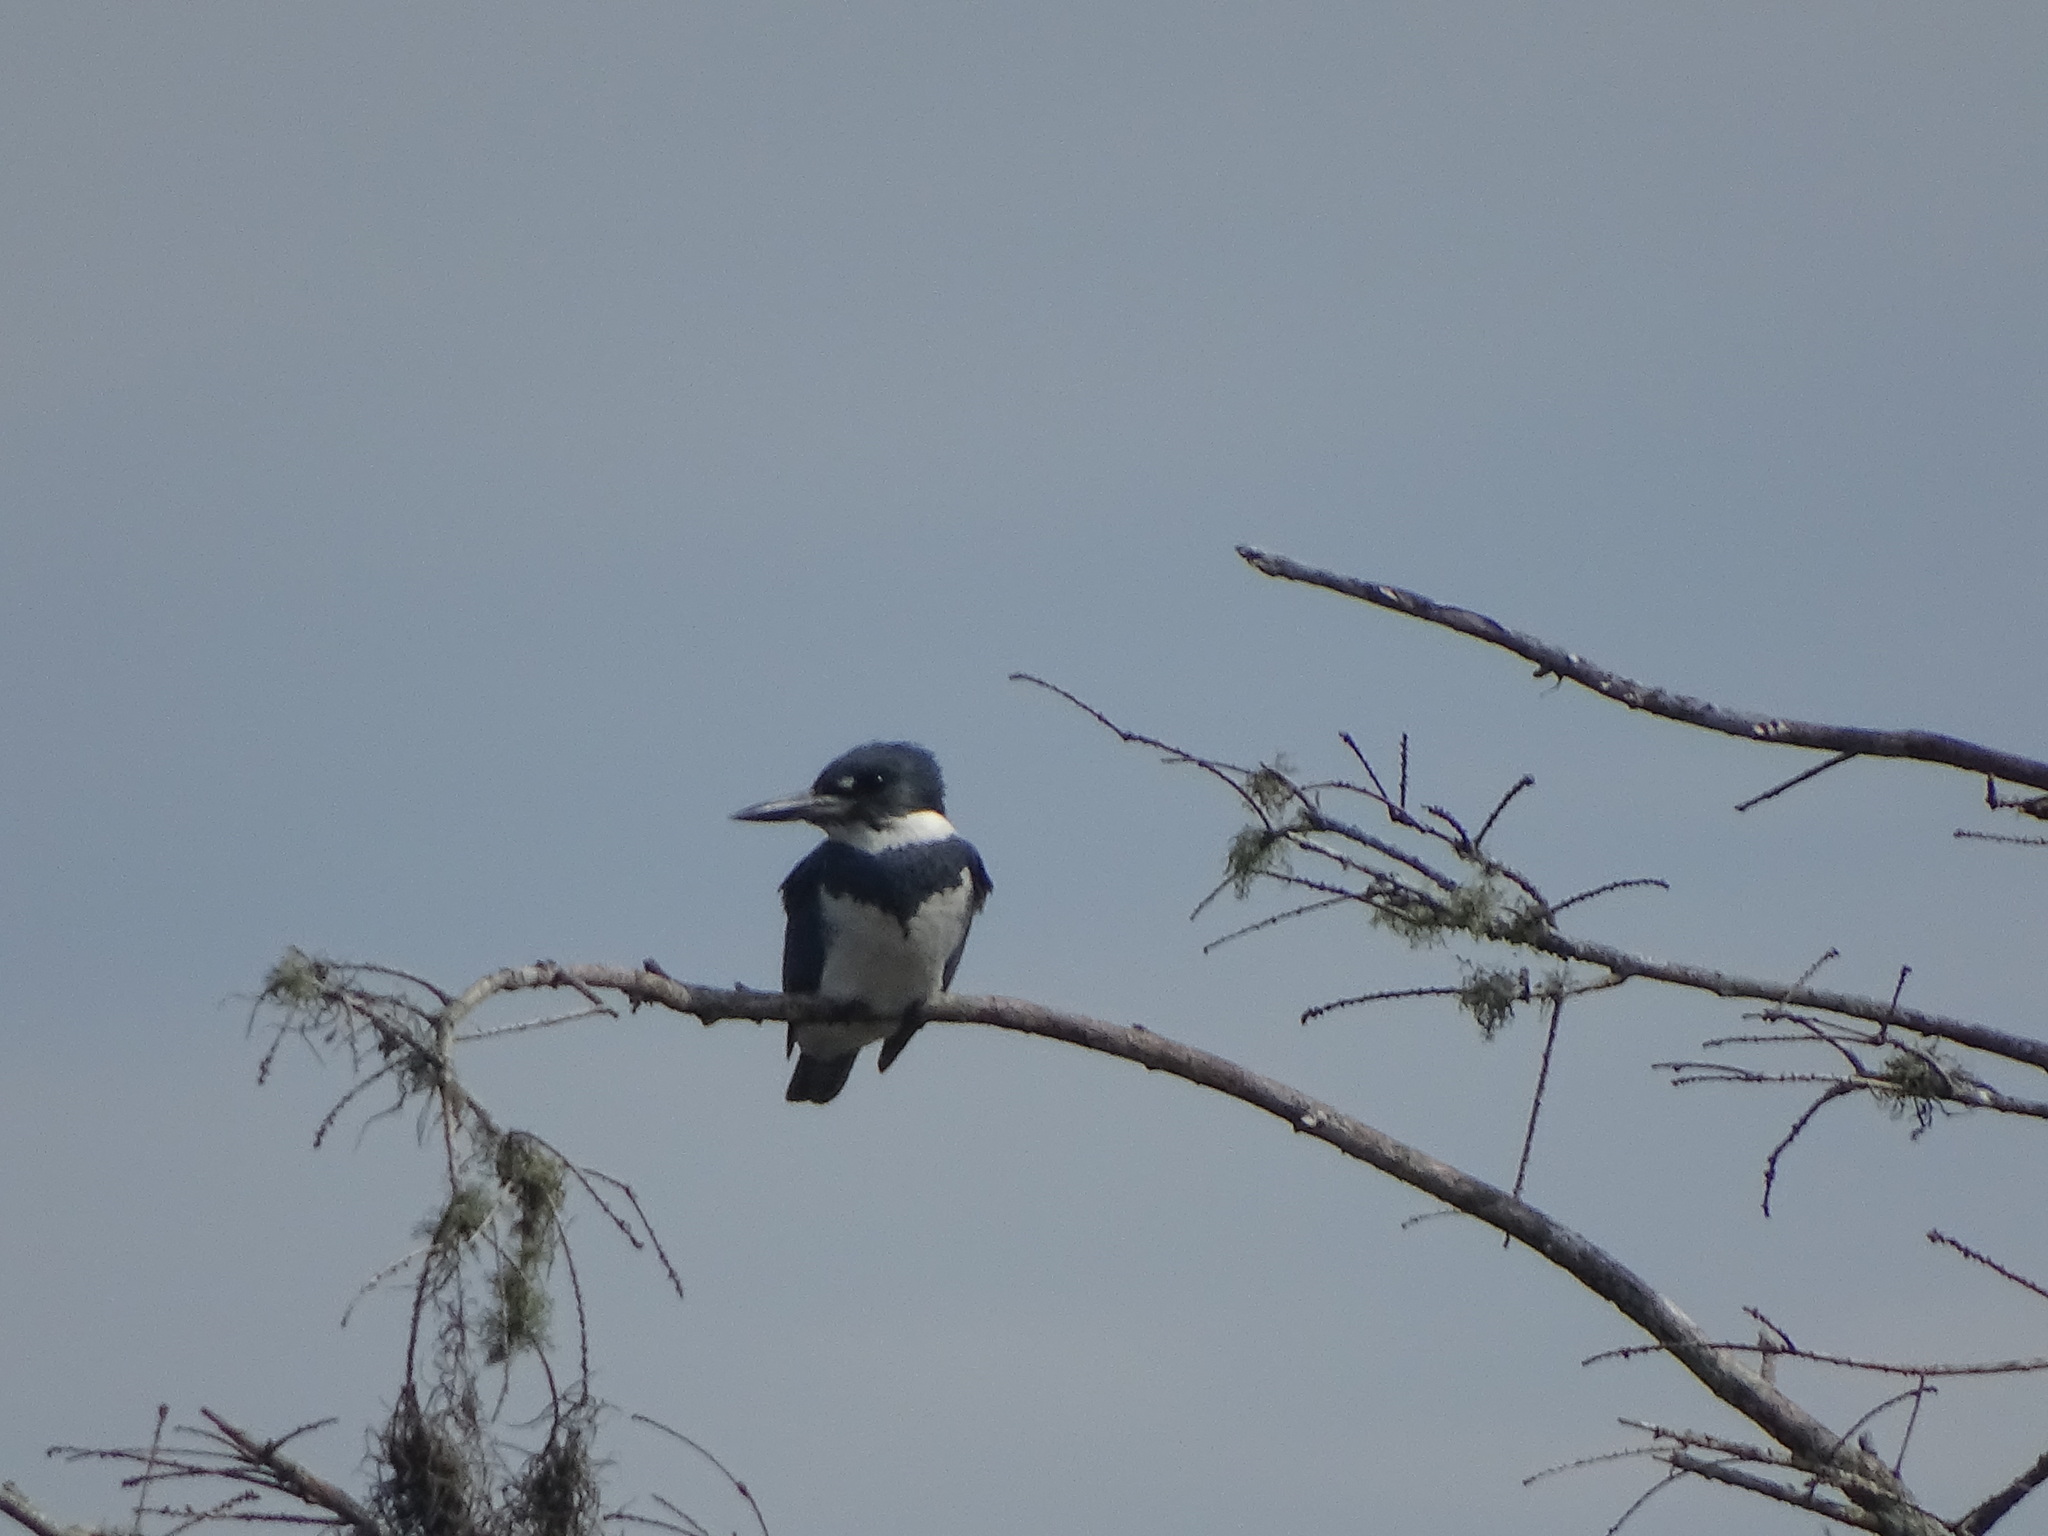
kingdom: Animalia
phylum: Chordata
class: Aves
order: Coraciiformes
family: Alcedinidae
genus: Megaceryle
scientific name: Megaceryle alcyon
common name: Belted kingfisher
